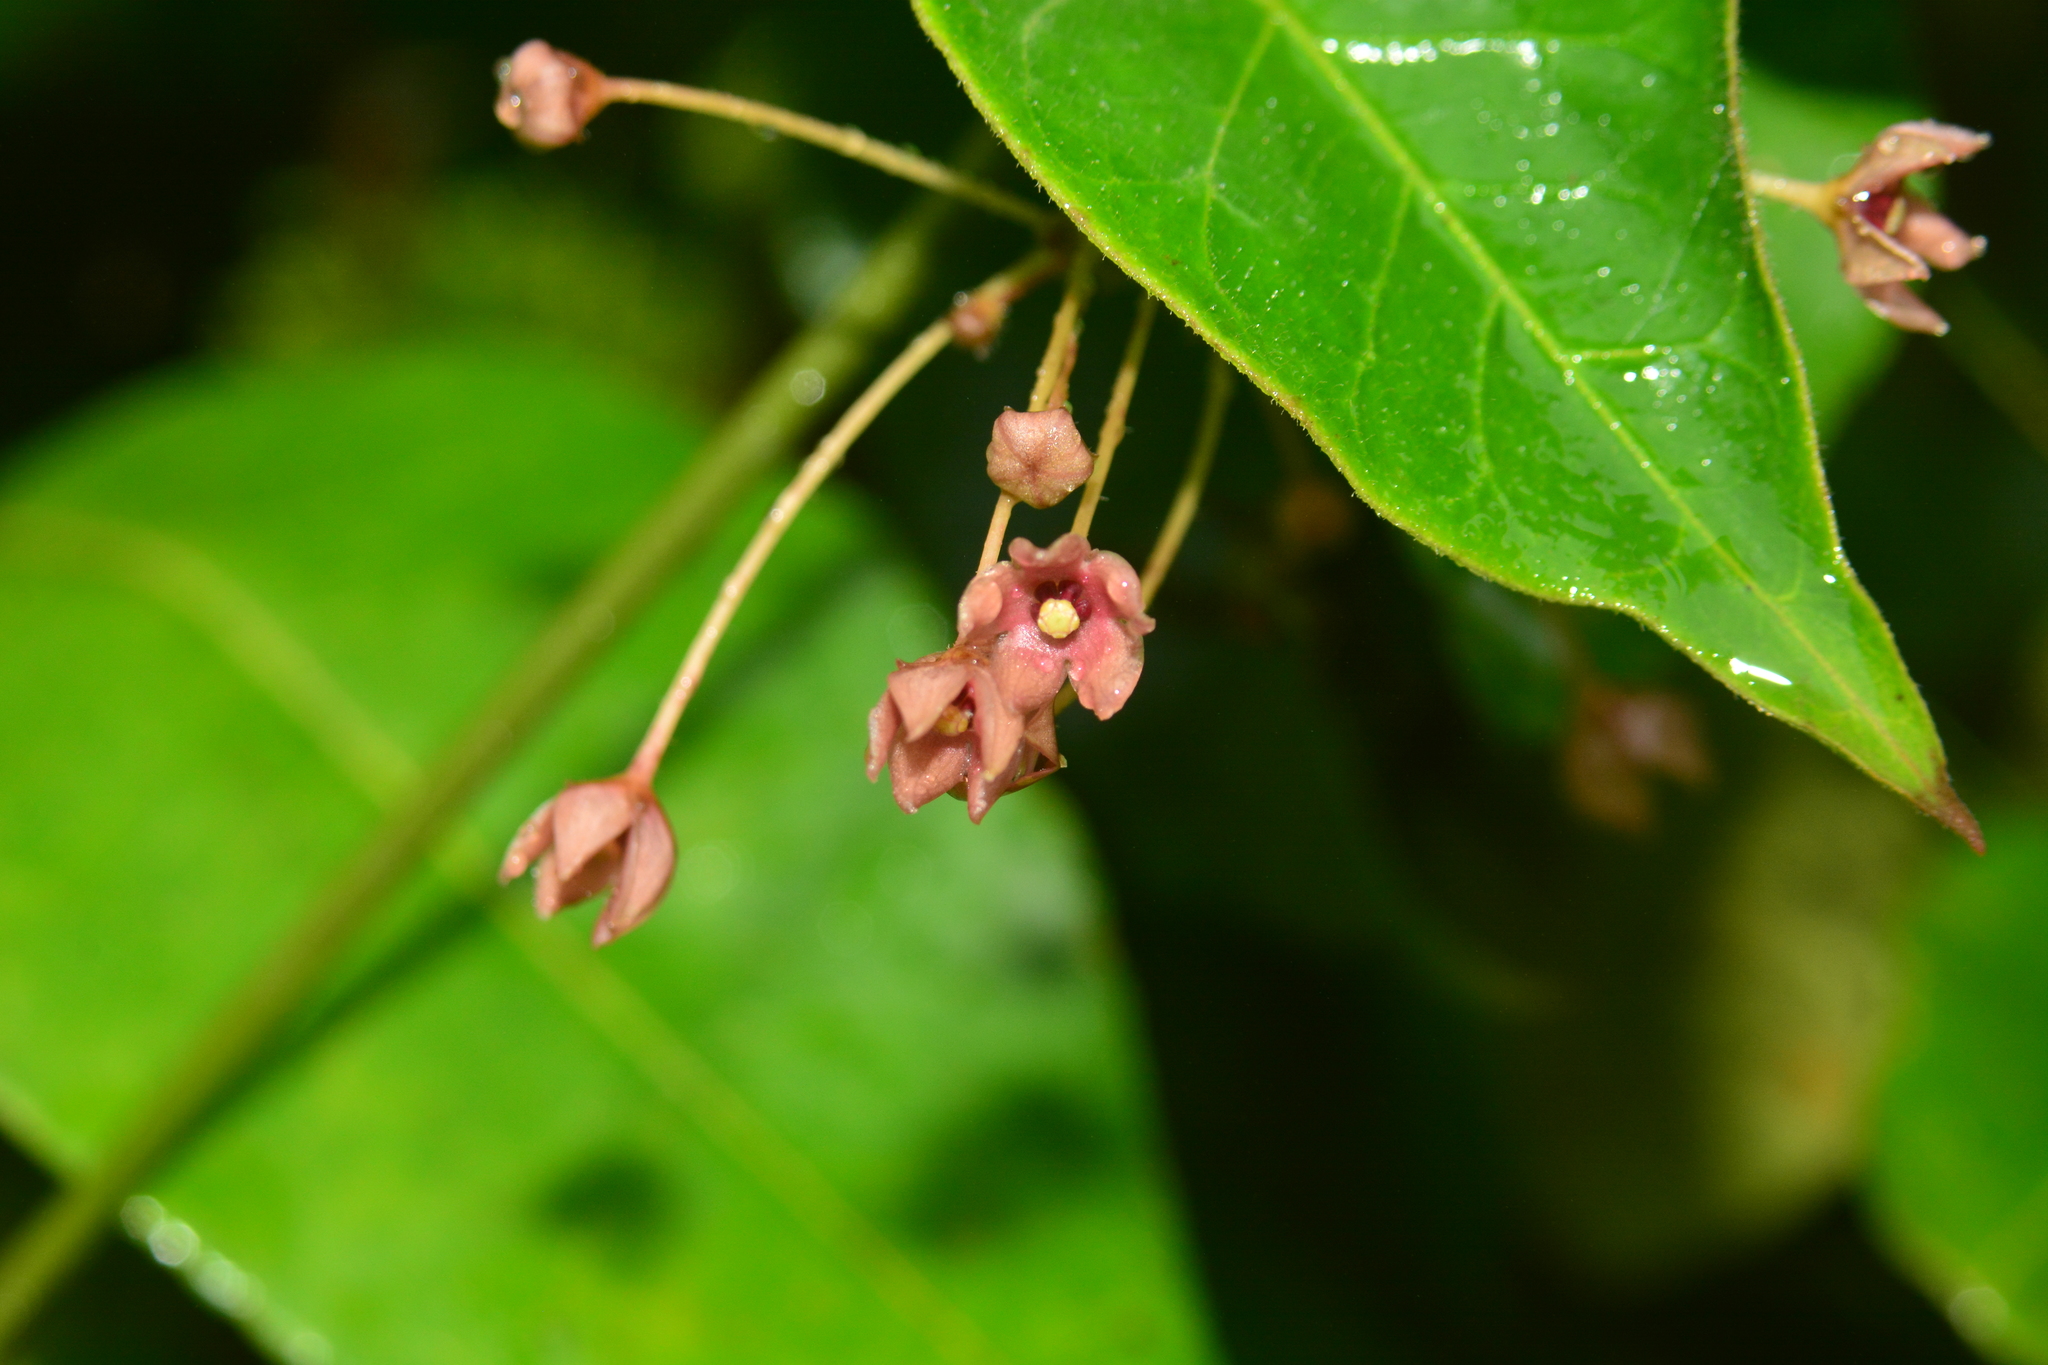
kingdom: Plantae
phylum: Tracheophyta
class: Magnoliopsida
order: Gentianales
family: Apocynaceae
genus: Vincetoxicum
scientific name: Vincetoxicum dalzellii
